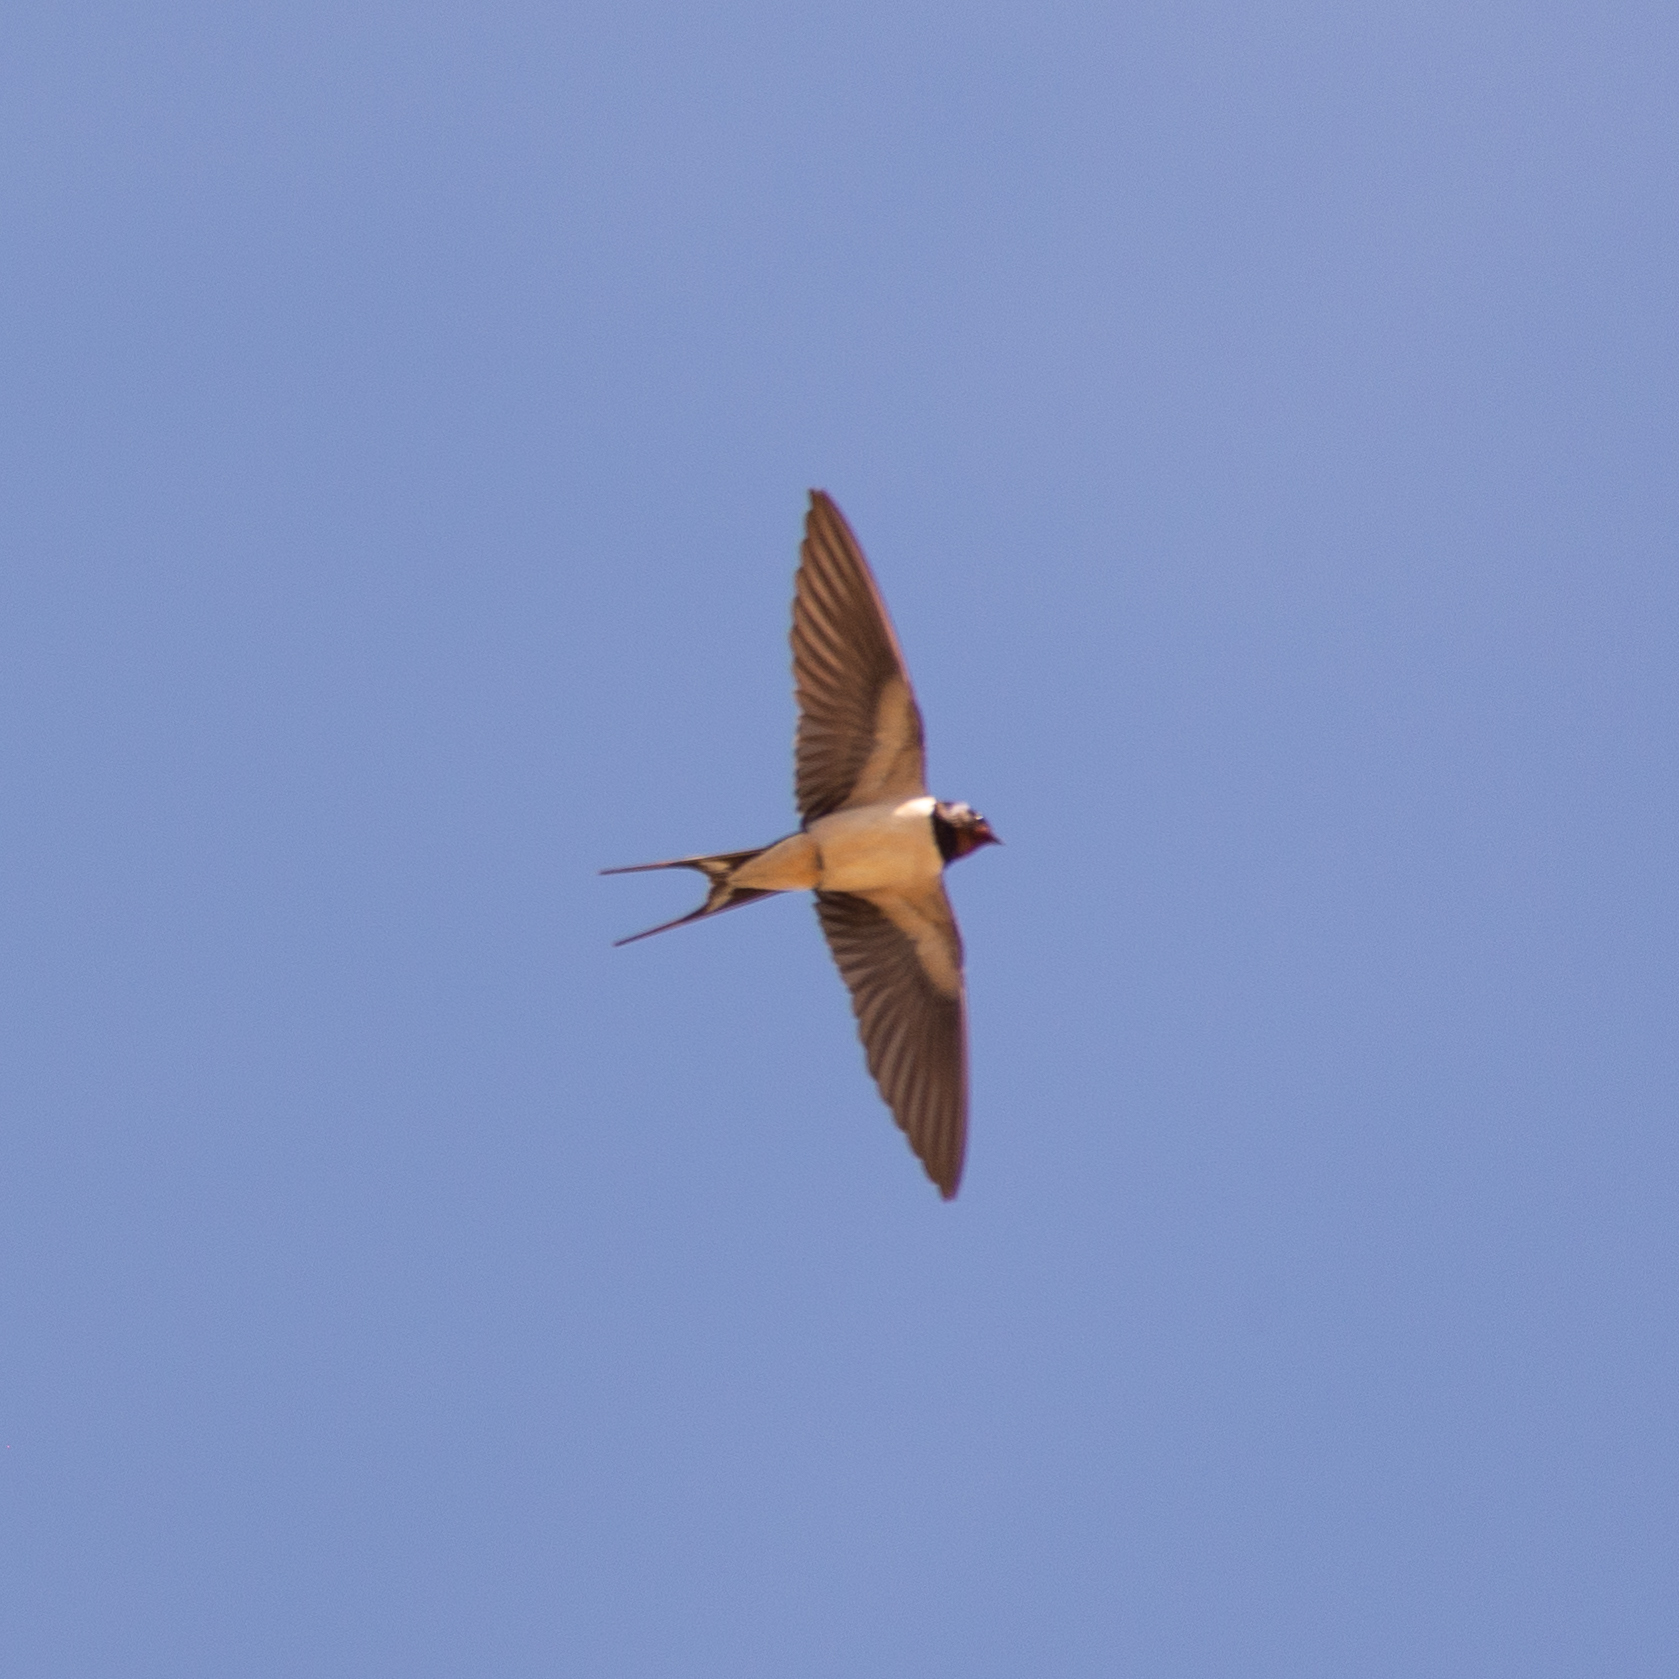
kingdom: Animalia
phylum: Chordata
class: Aves
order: Passeriformes
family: Hirundinidae
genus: Hirundo
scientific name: Hirundo rustica
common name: Barn swallow
